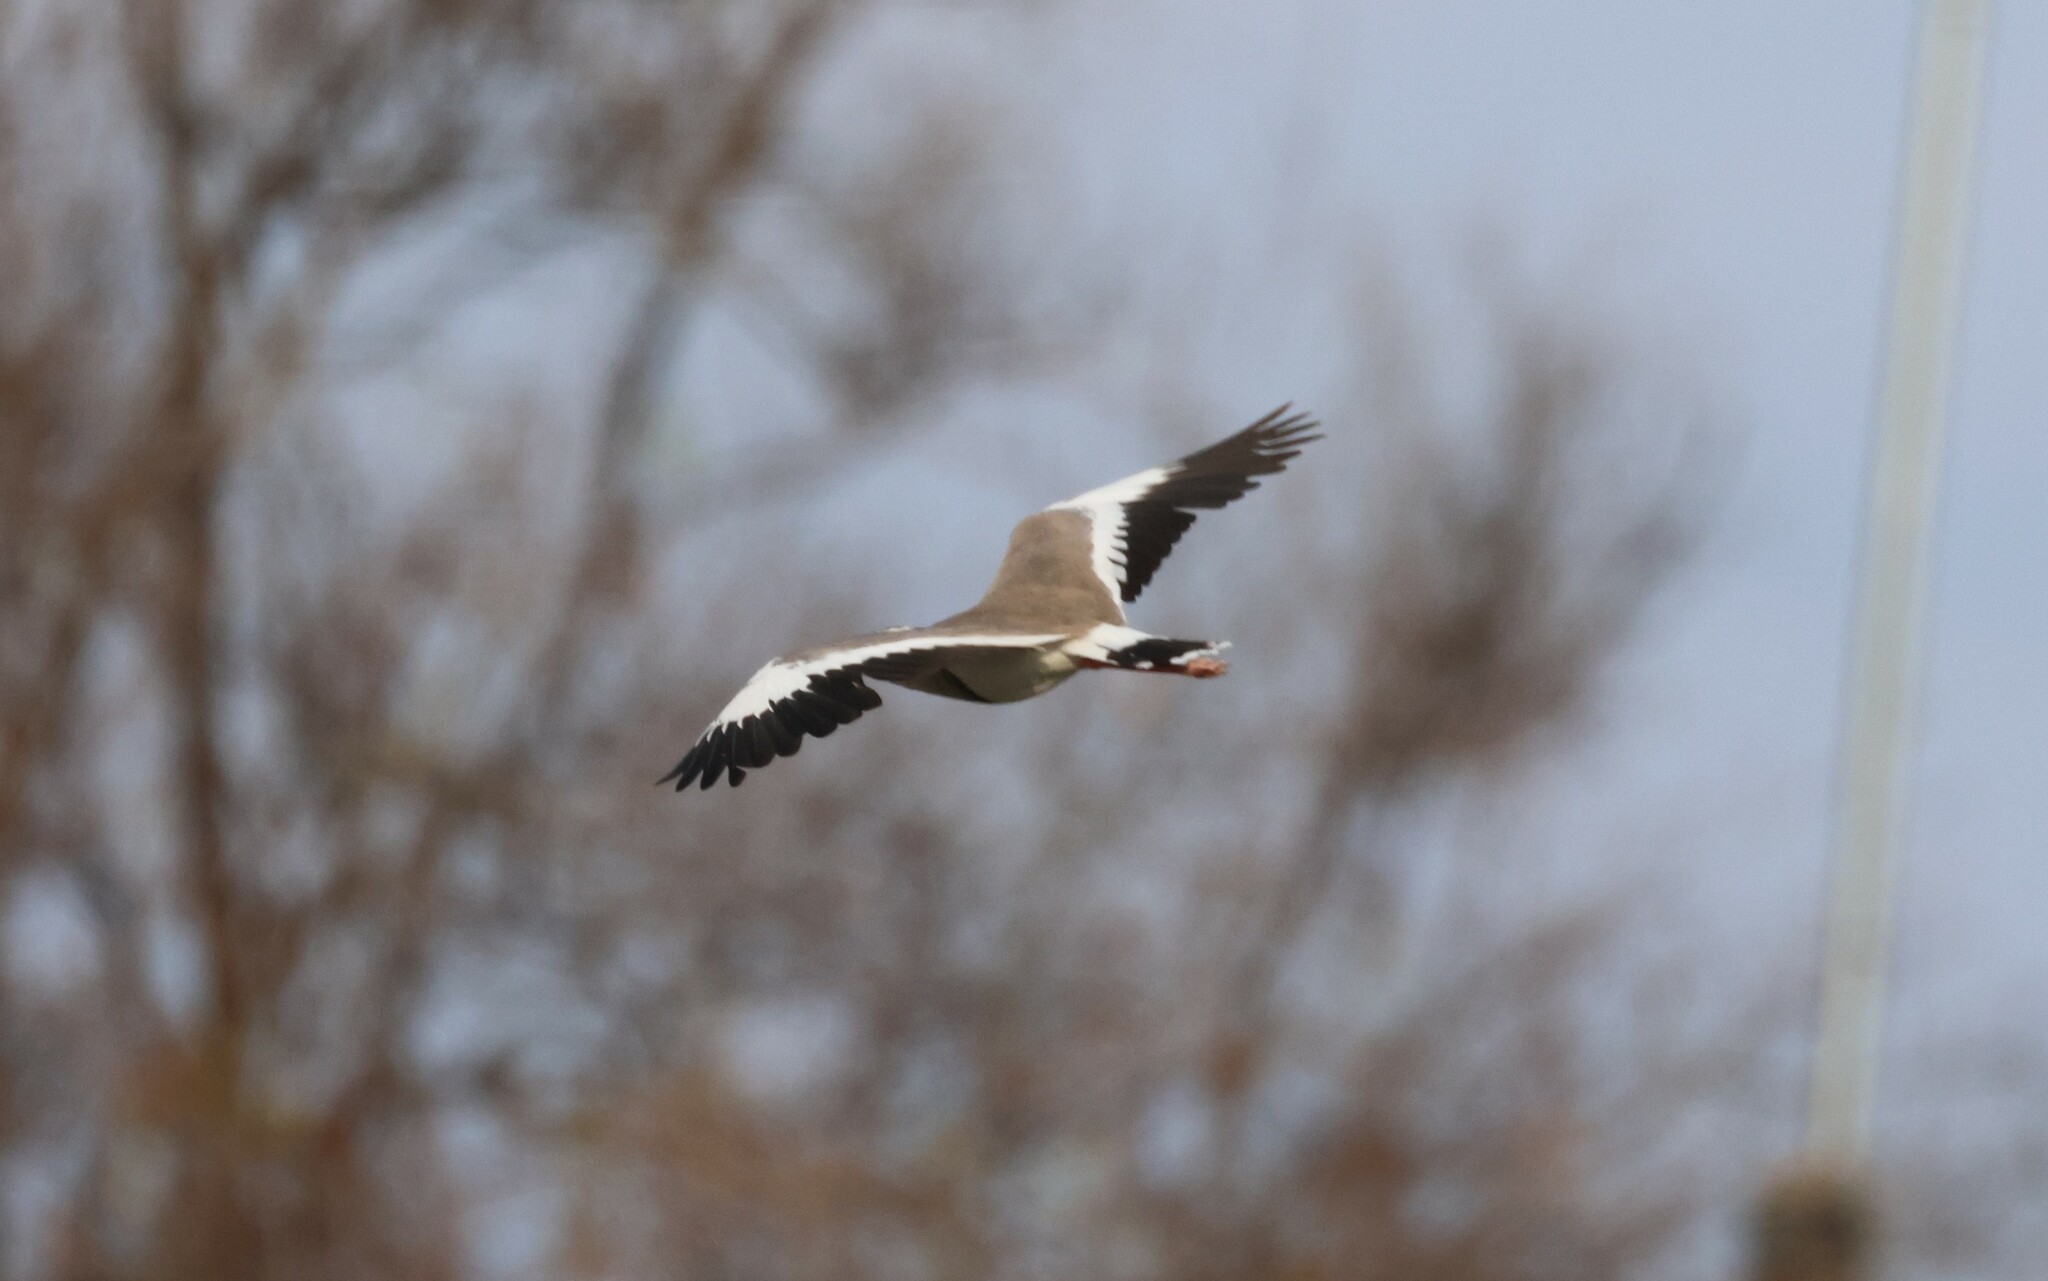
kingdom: Animalia
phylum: Chordata
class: Aves
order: Charadriiformes
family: Charadriidae
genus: Vanellus
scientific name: Vanellus coronatus
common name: Crowned lapwing
